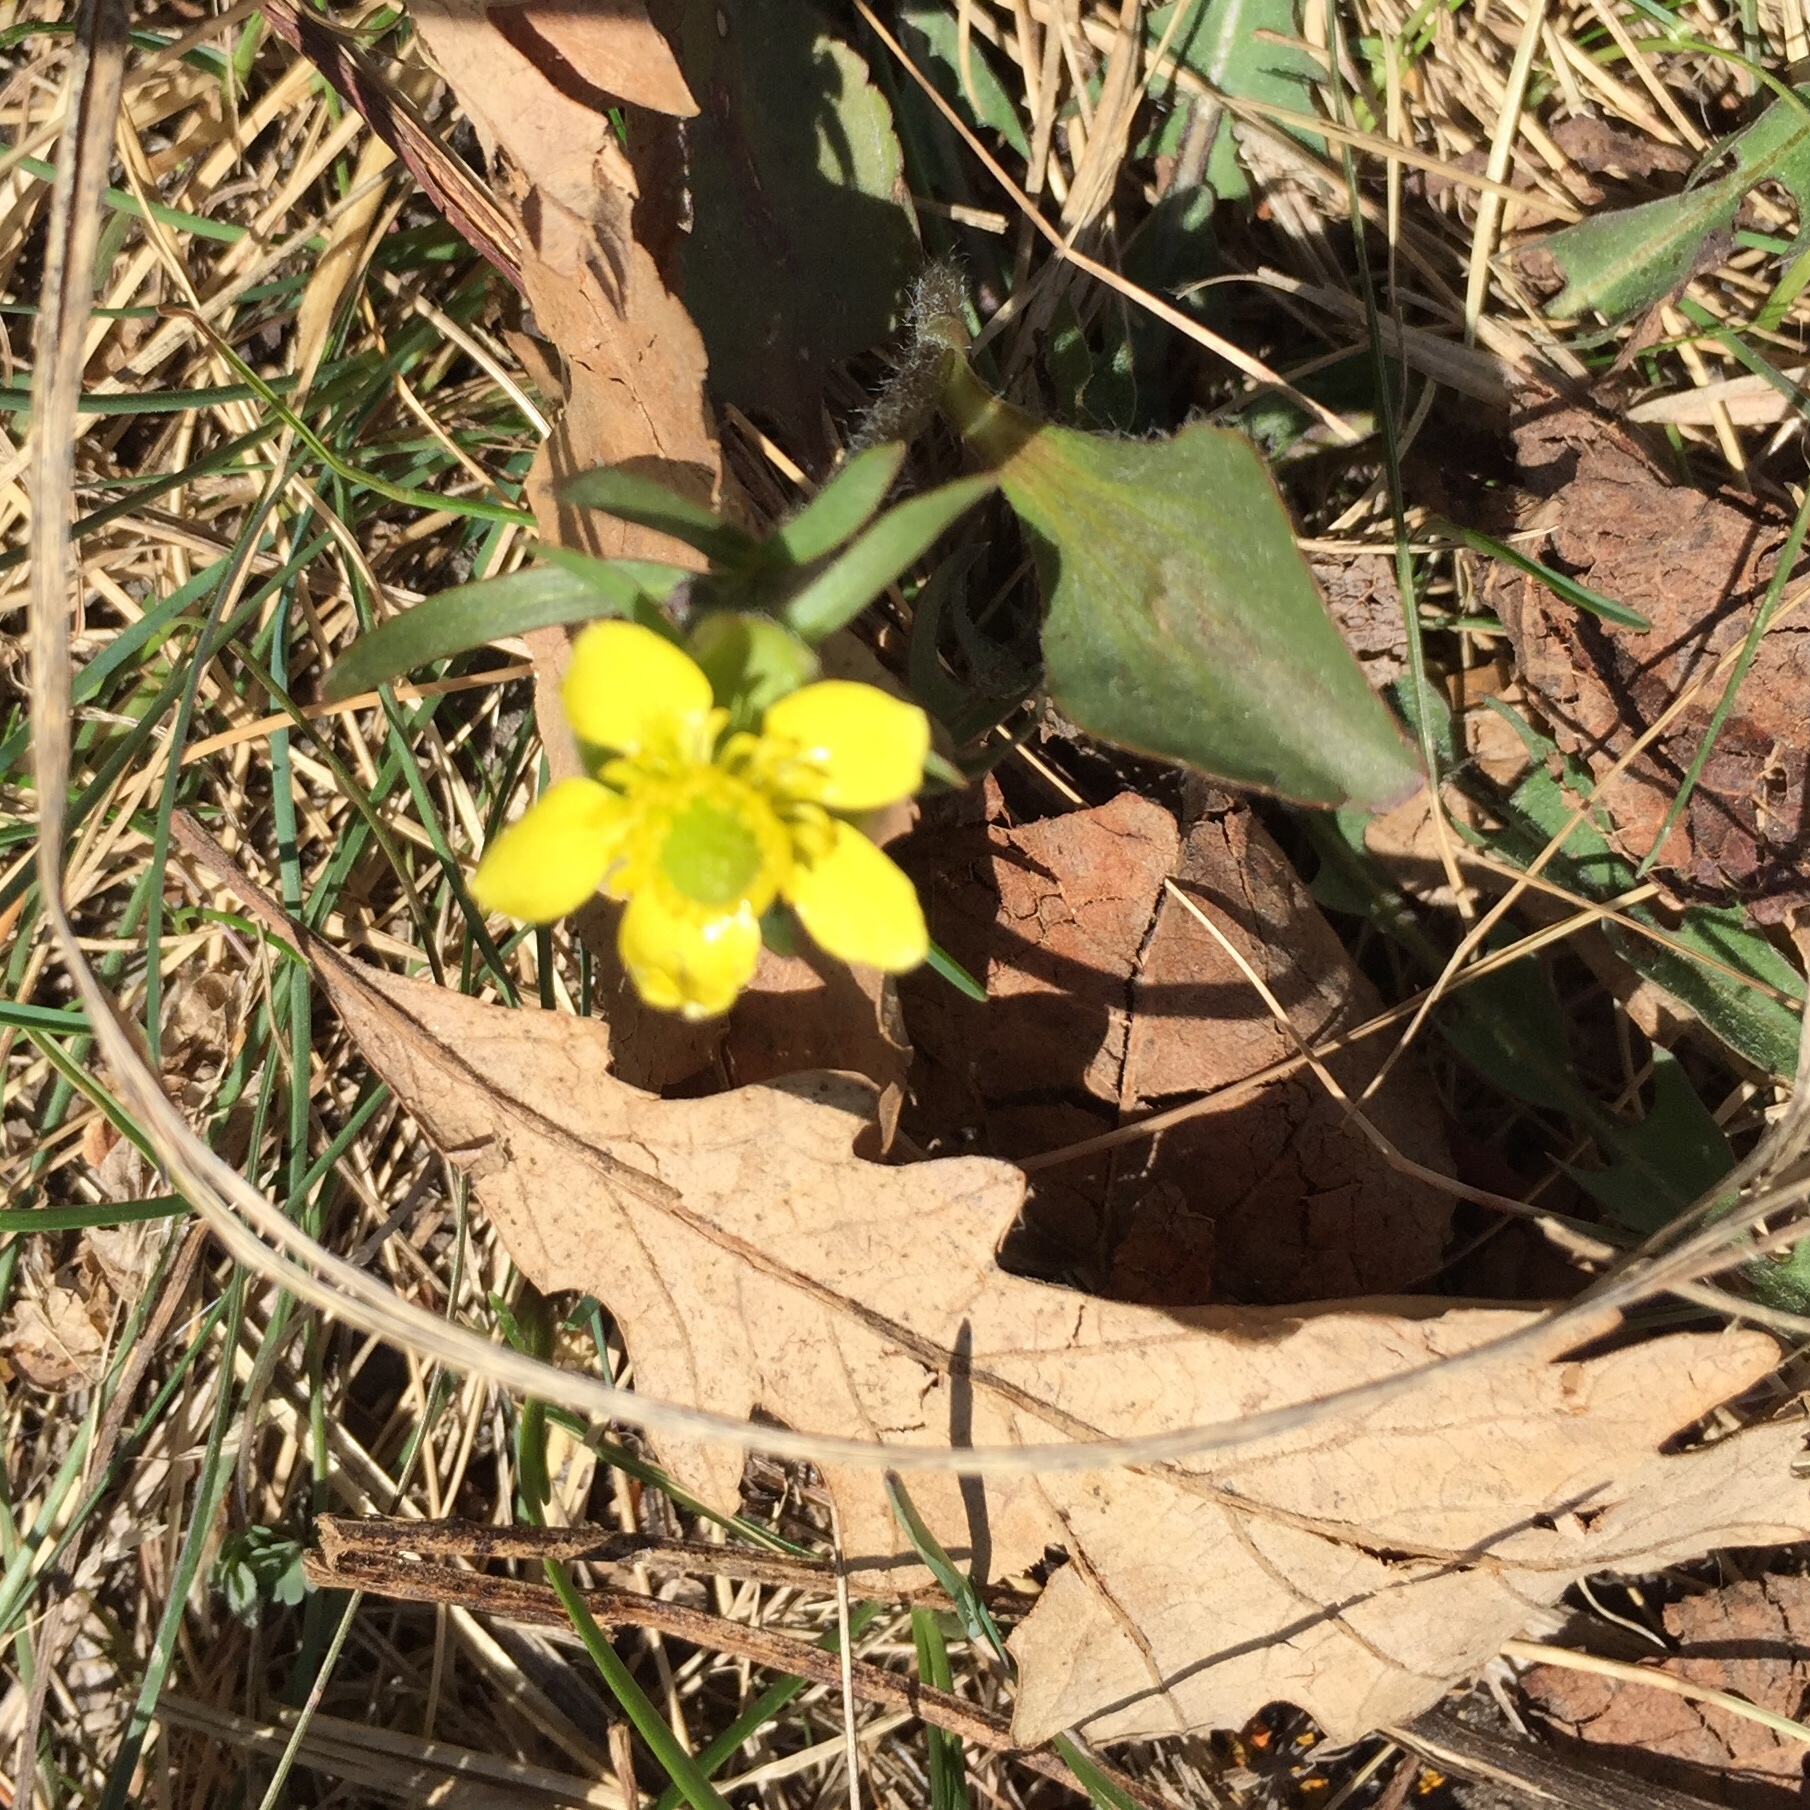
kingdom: Plantae
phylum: Tracheophyta
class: Magnoliopsida
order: Ranunculales
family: Ranunculaceae
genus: Ranunculus
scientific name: Ranunculus rhomboideus
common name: Prairie buttercup
